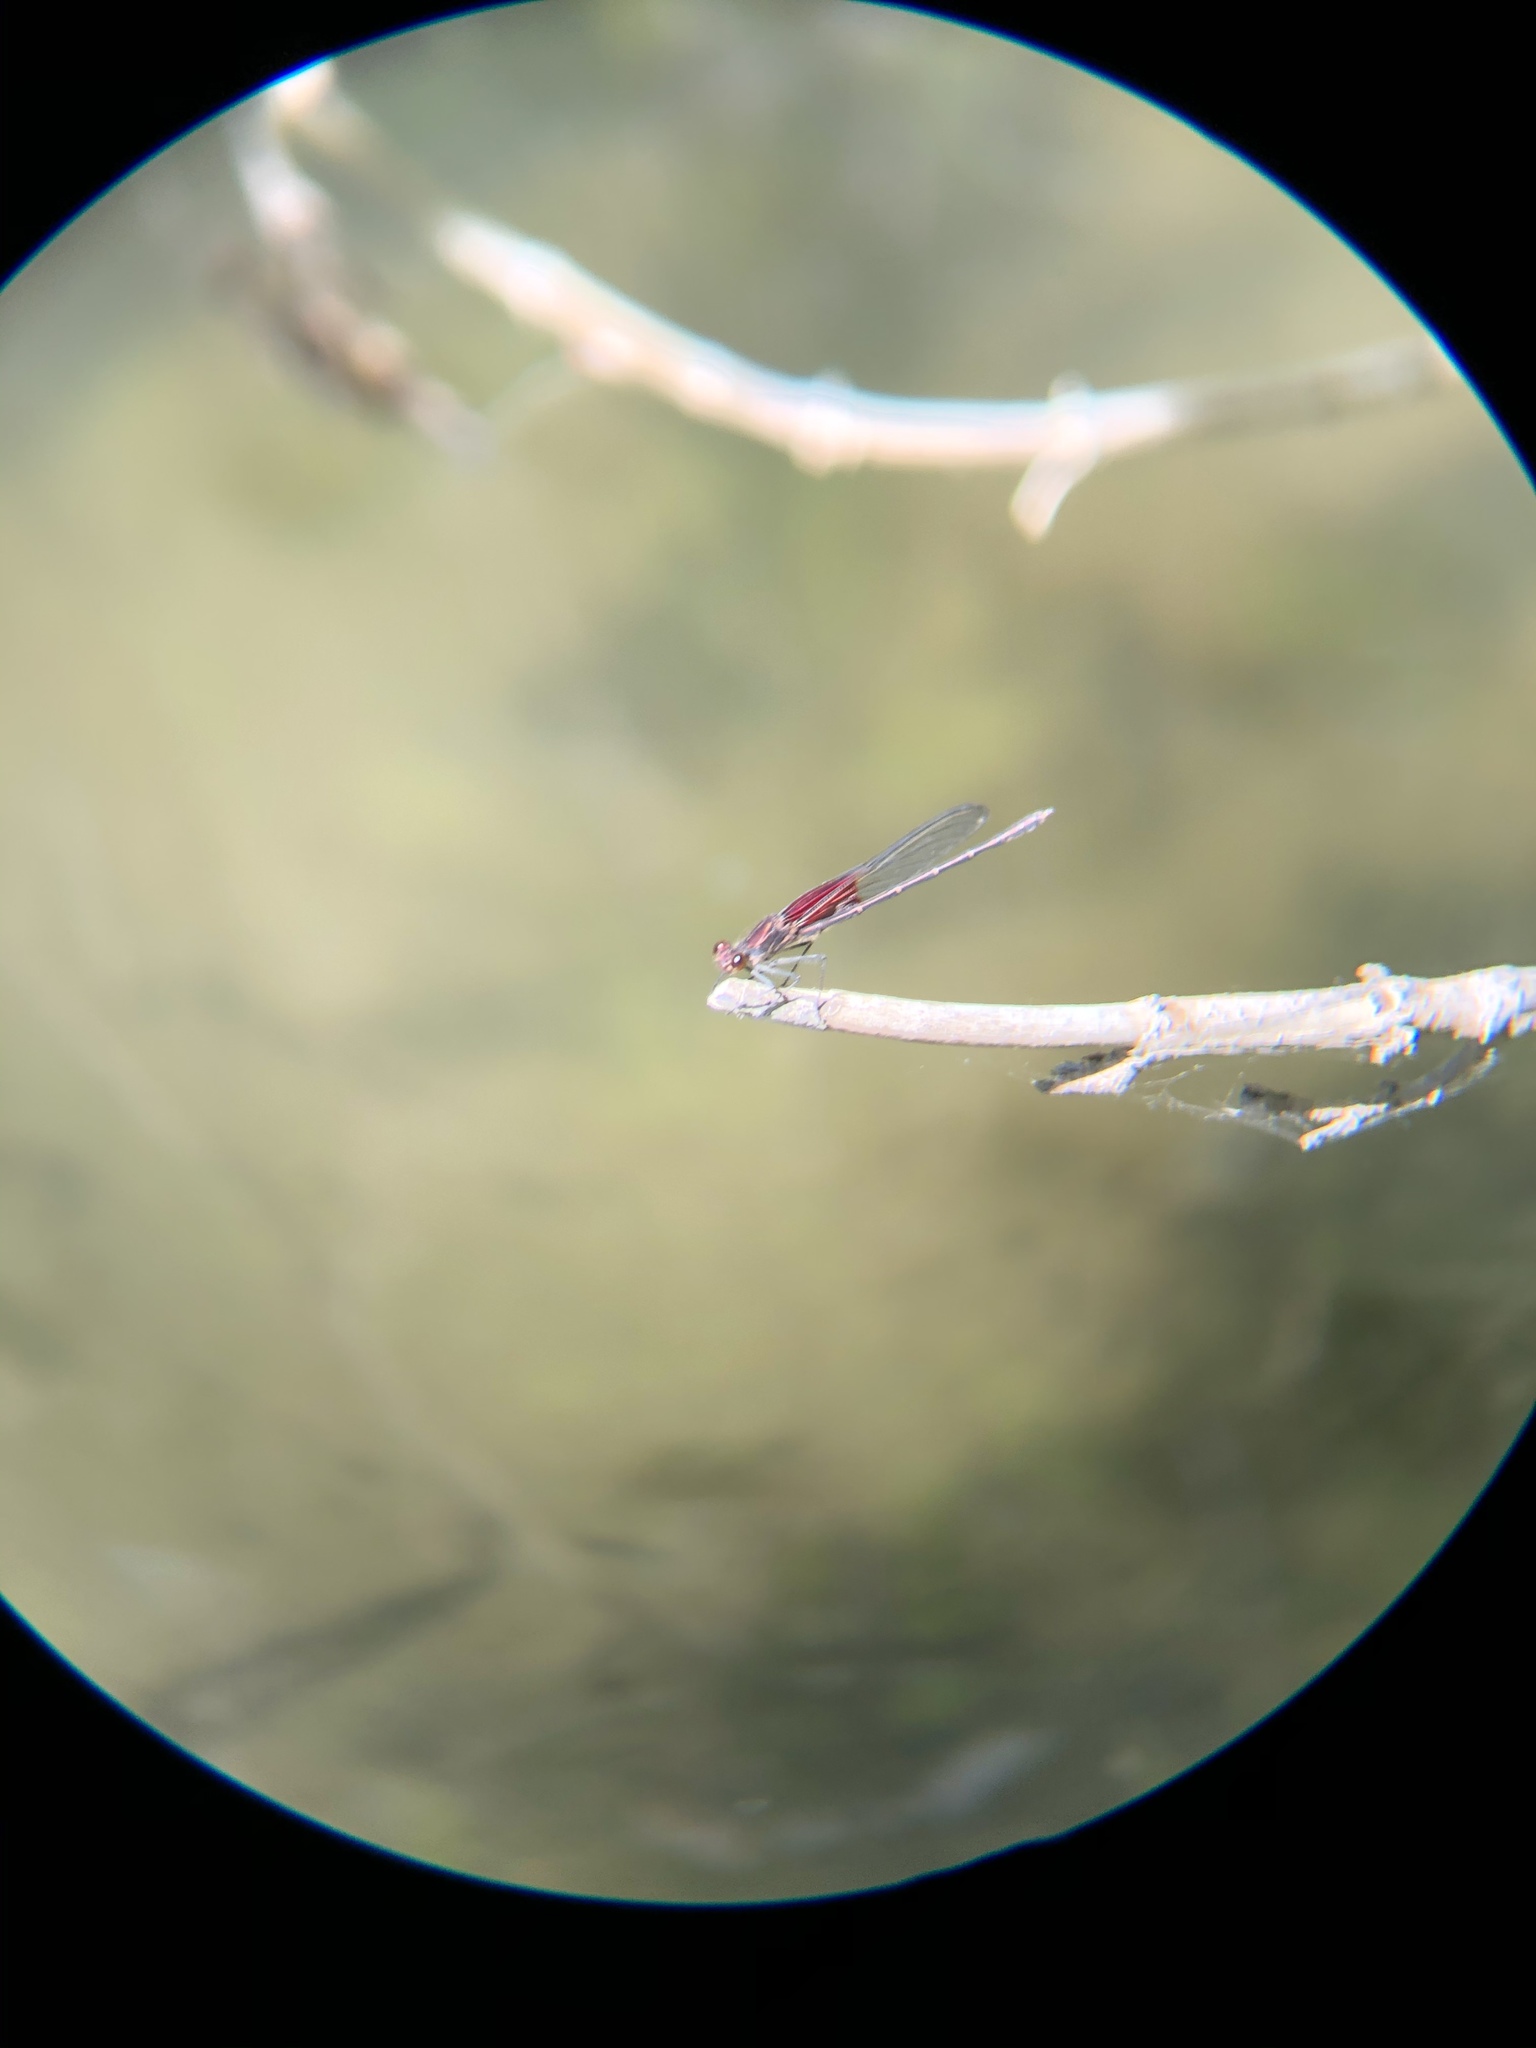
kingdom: Animalia
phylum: Arthropoda
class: Insecta
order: Odonata
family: Calopterygidae
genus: Hetaerina
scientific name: Hetaerina americana
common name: American rubyspot
